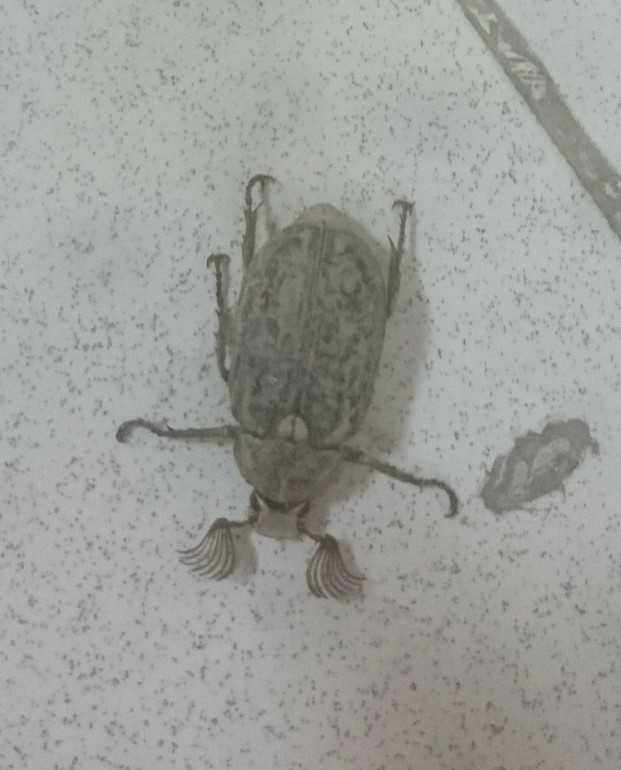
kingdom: Animalia
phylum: Arthropoda
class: Insecta
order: Coleoptera
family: Scarabaeidae
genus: Polyphylla
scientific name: Polyphylla alba
